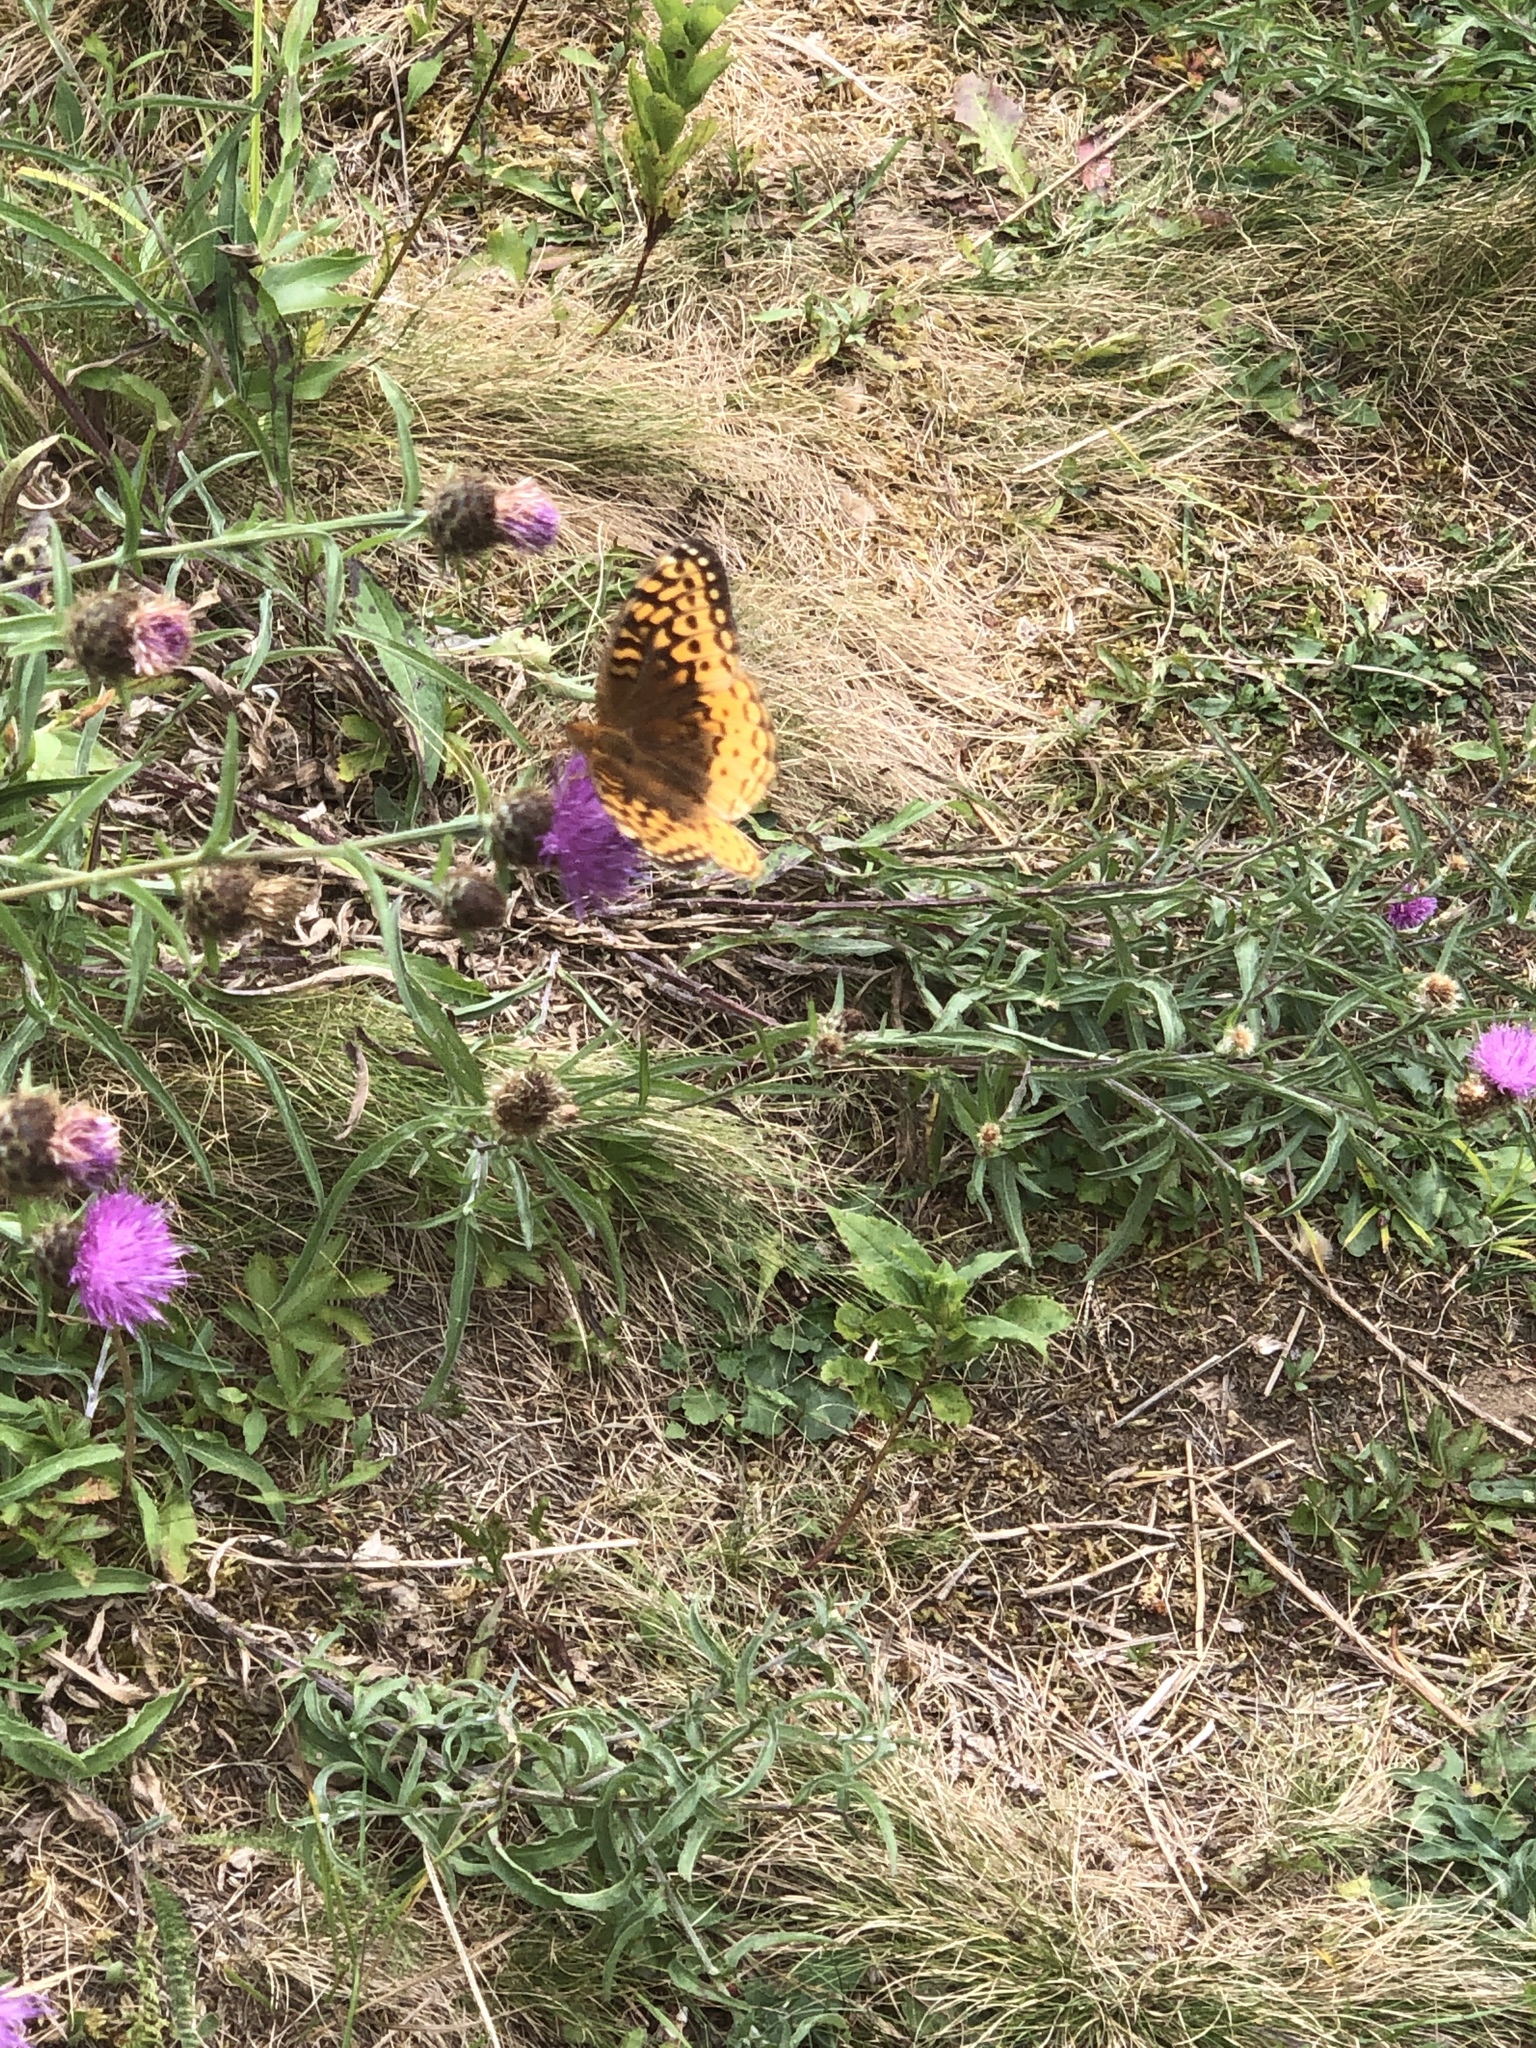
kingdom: Animalia
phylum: Arthropoda
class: Insecta
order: Lepidoptera
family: Nymphalidae
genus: Speyeria
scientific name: Speyeria cybele
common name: Great spangled fritillary
